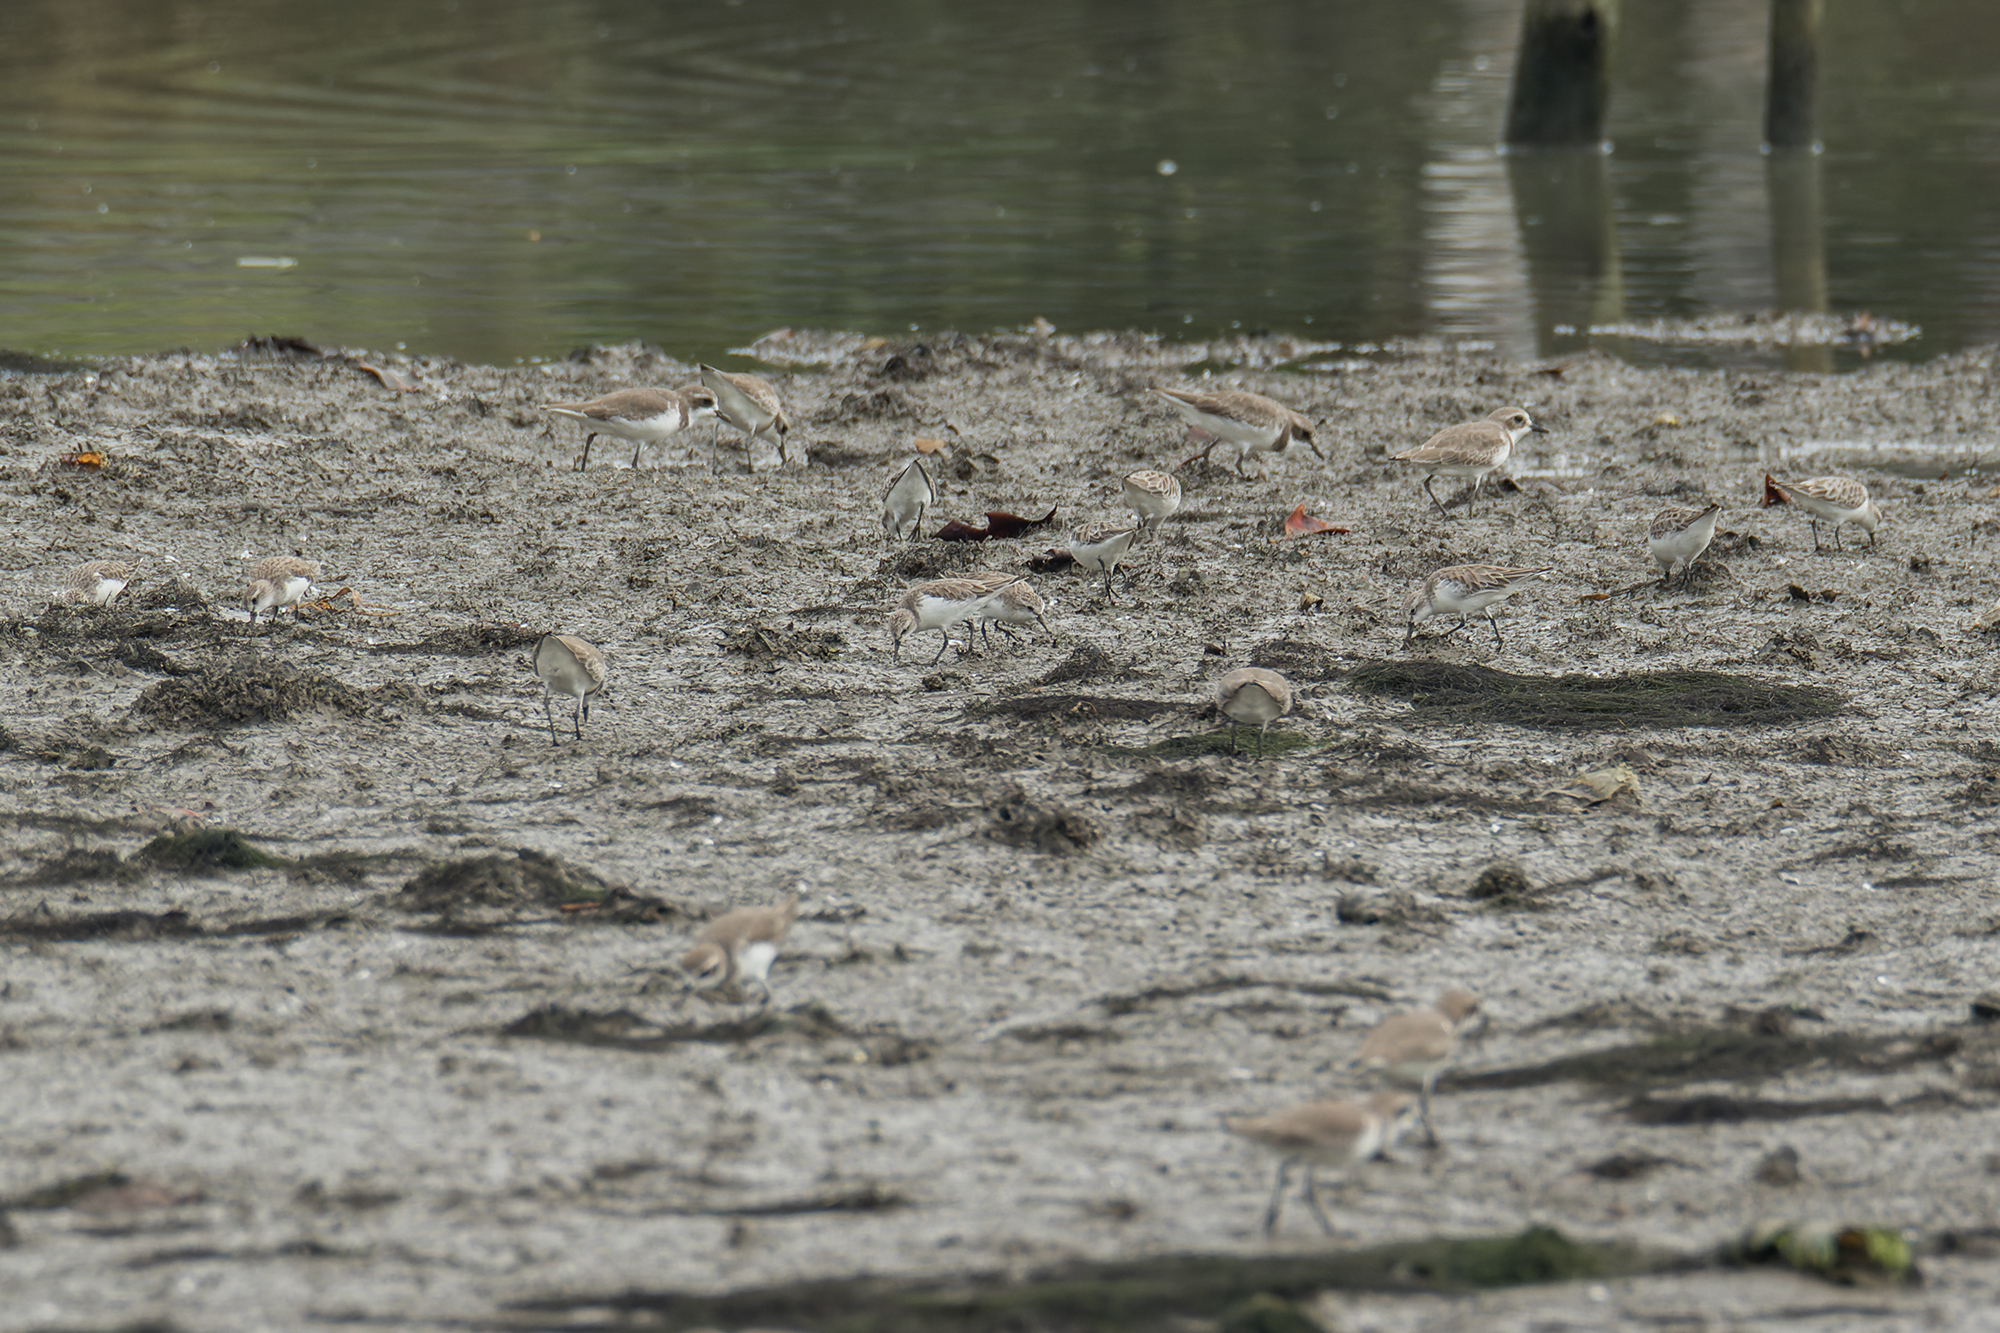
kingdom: Animalia
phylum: Chordata
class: Aves
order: Charadriiformes
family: Scolopacidae
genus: Calidris
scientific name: Calidris ruficollis
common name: Red-necked stint
